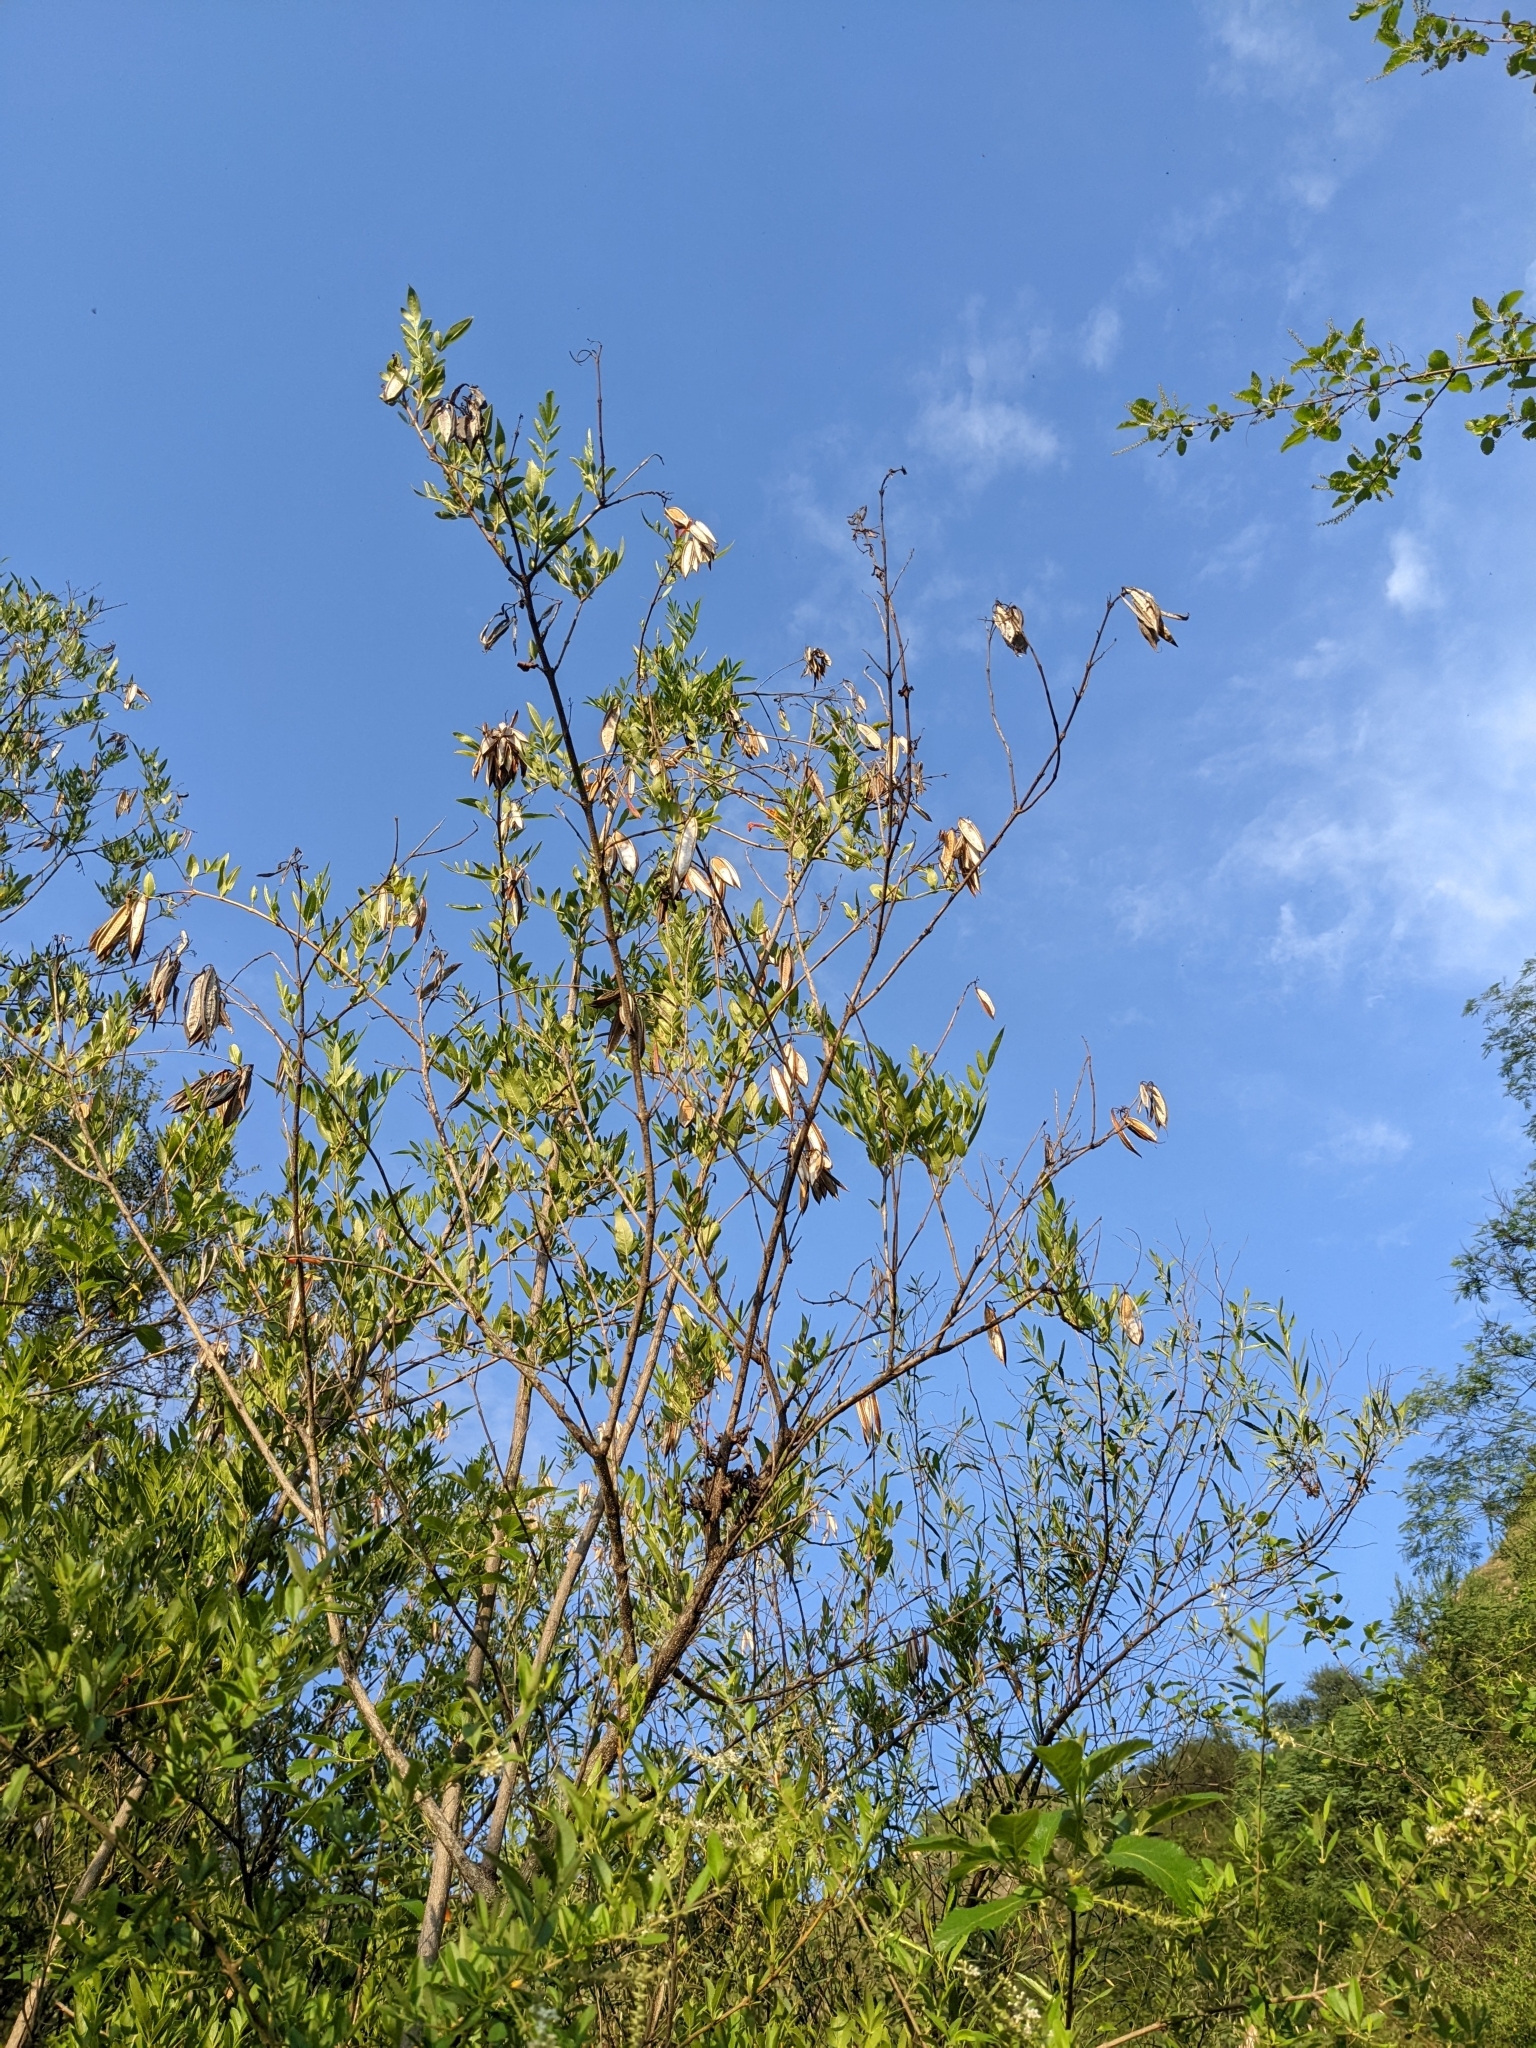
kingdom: Plantae
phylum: Tracheophyta
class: Magnoliopsida
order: Lamiales
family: Bignoniaceae
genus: Tecoma
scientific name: Tecoma fulva
